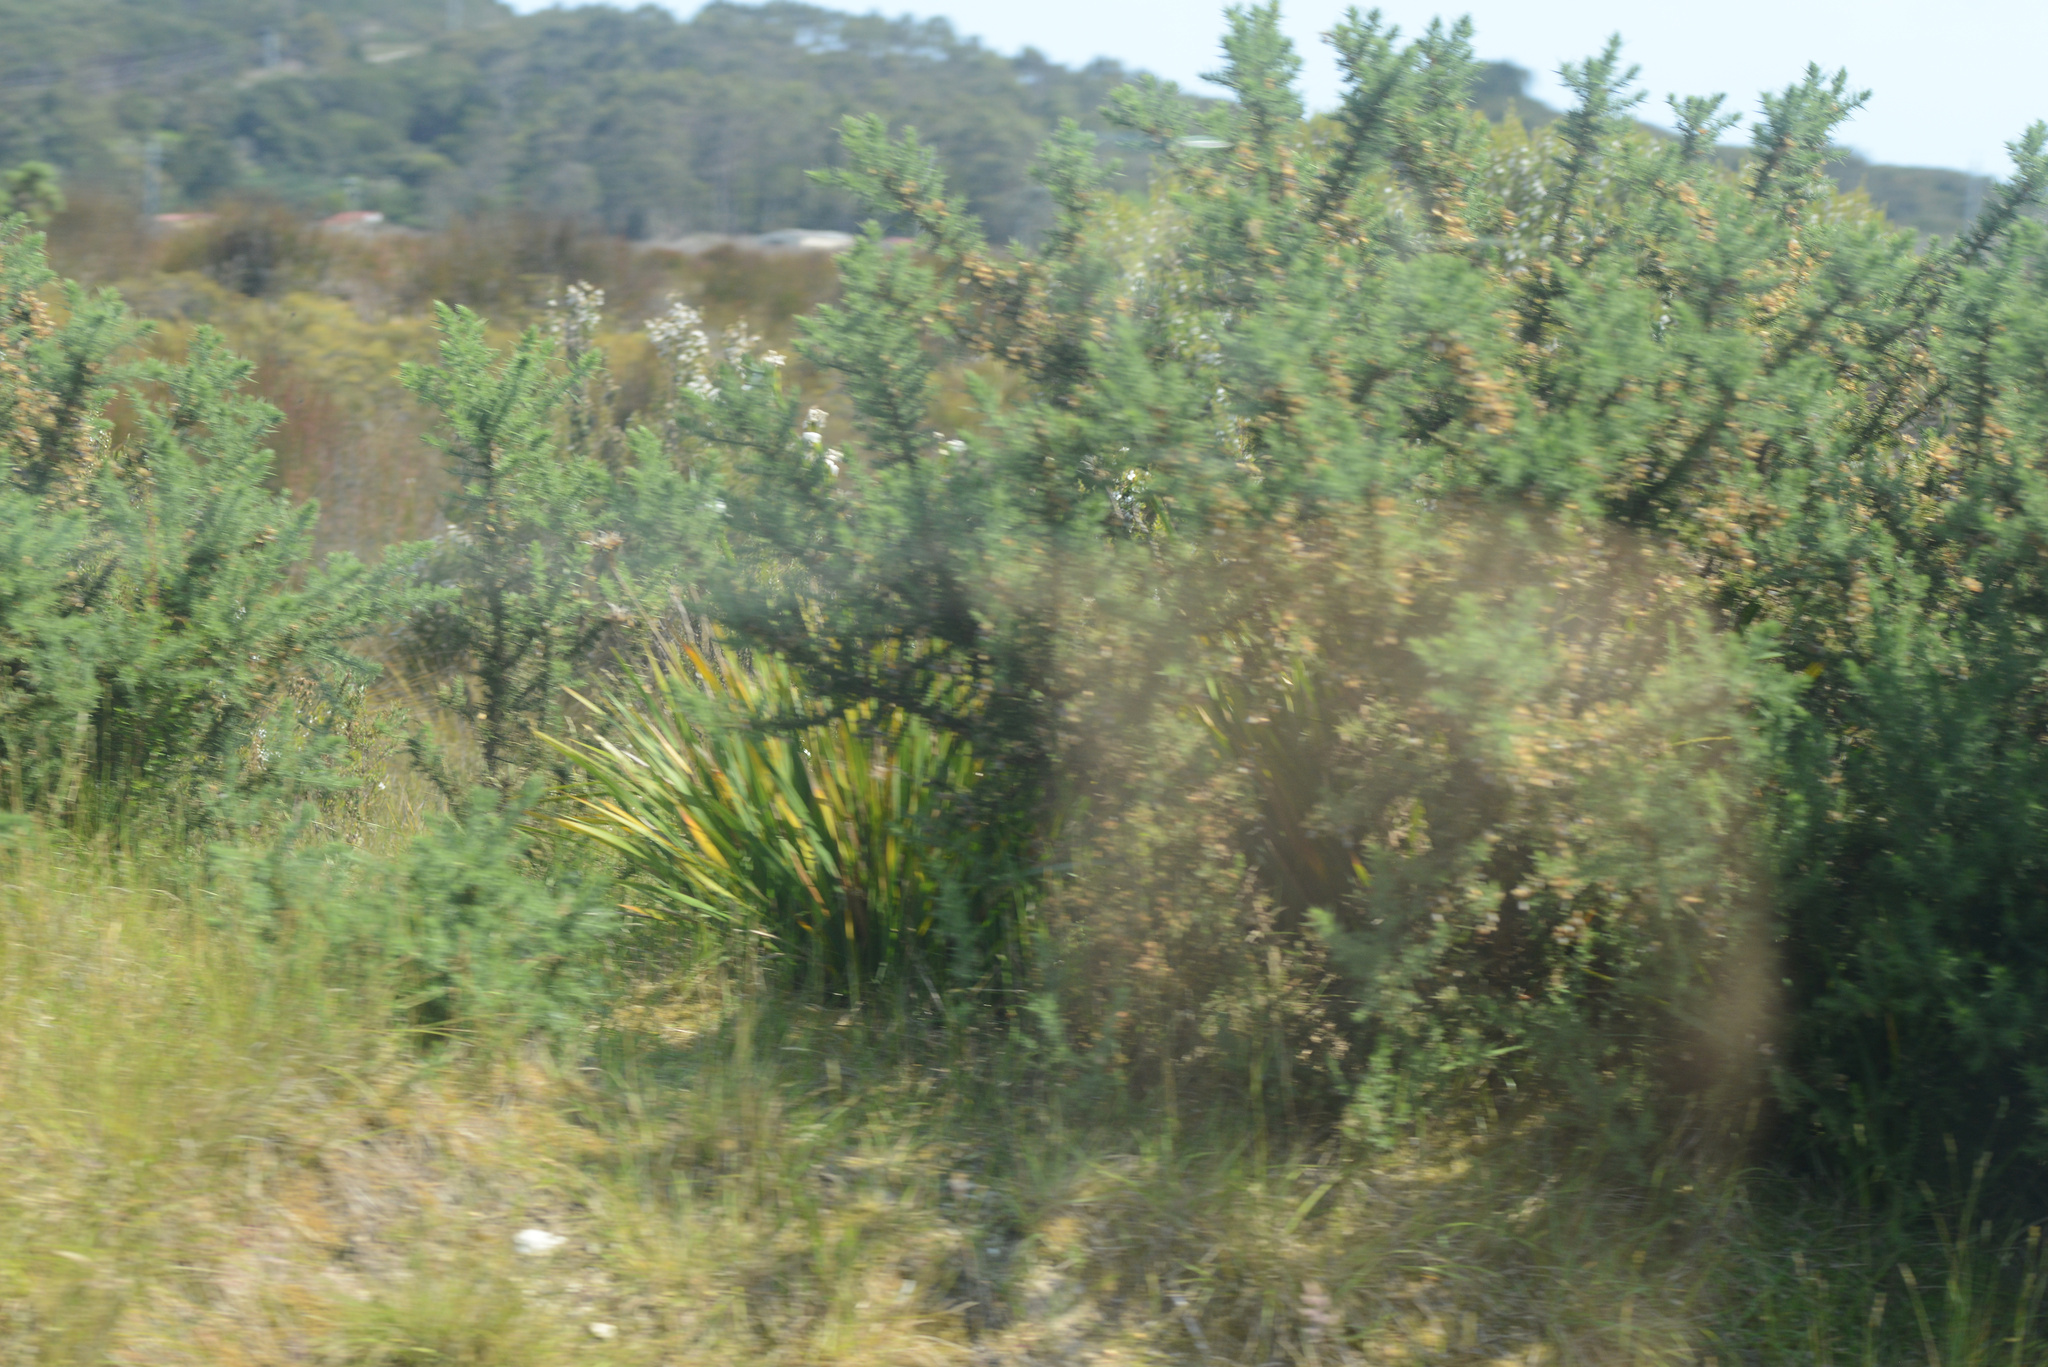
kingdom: Plantae
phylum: Tracheophyta
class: Magnoliopsida
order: Fabales
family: Fabaceae
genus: Ulex
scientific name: Ulex europaeus
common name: Common gorse
